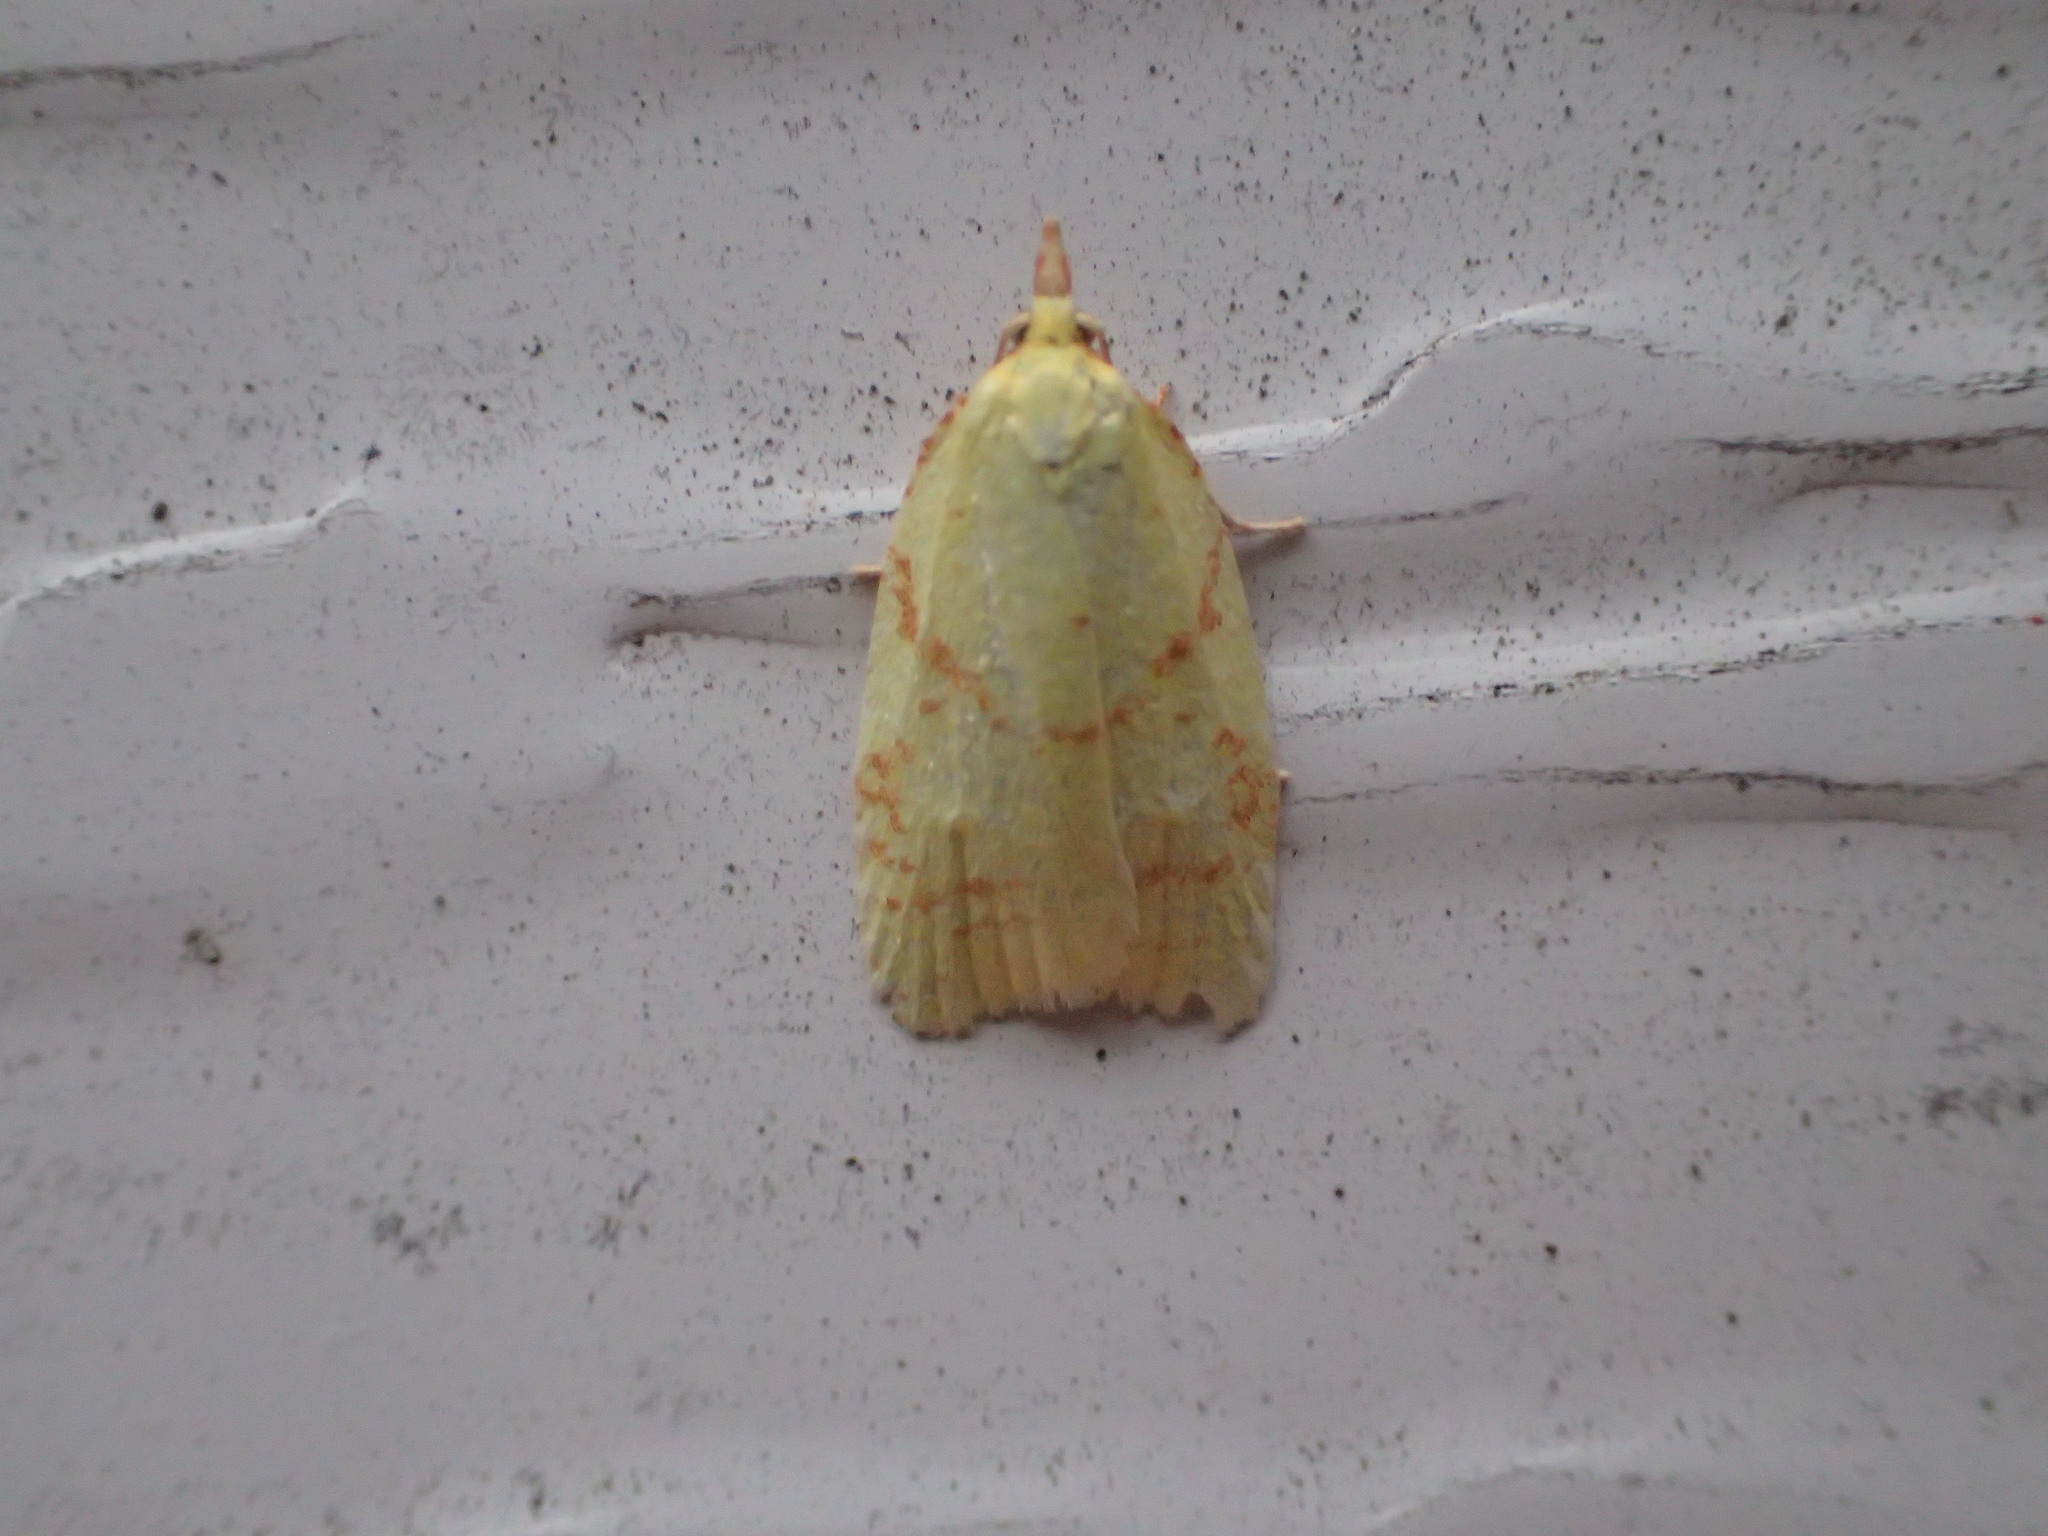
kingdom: Animalia
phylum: Arthropoda
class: Insecta
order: Lepidoptera
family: Tortricidae
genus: Cenopis
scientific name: Cenopis pettitana
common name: Maple-basswood leafroller moth
